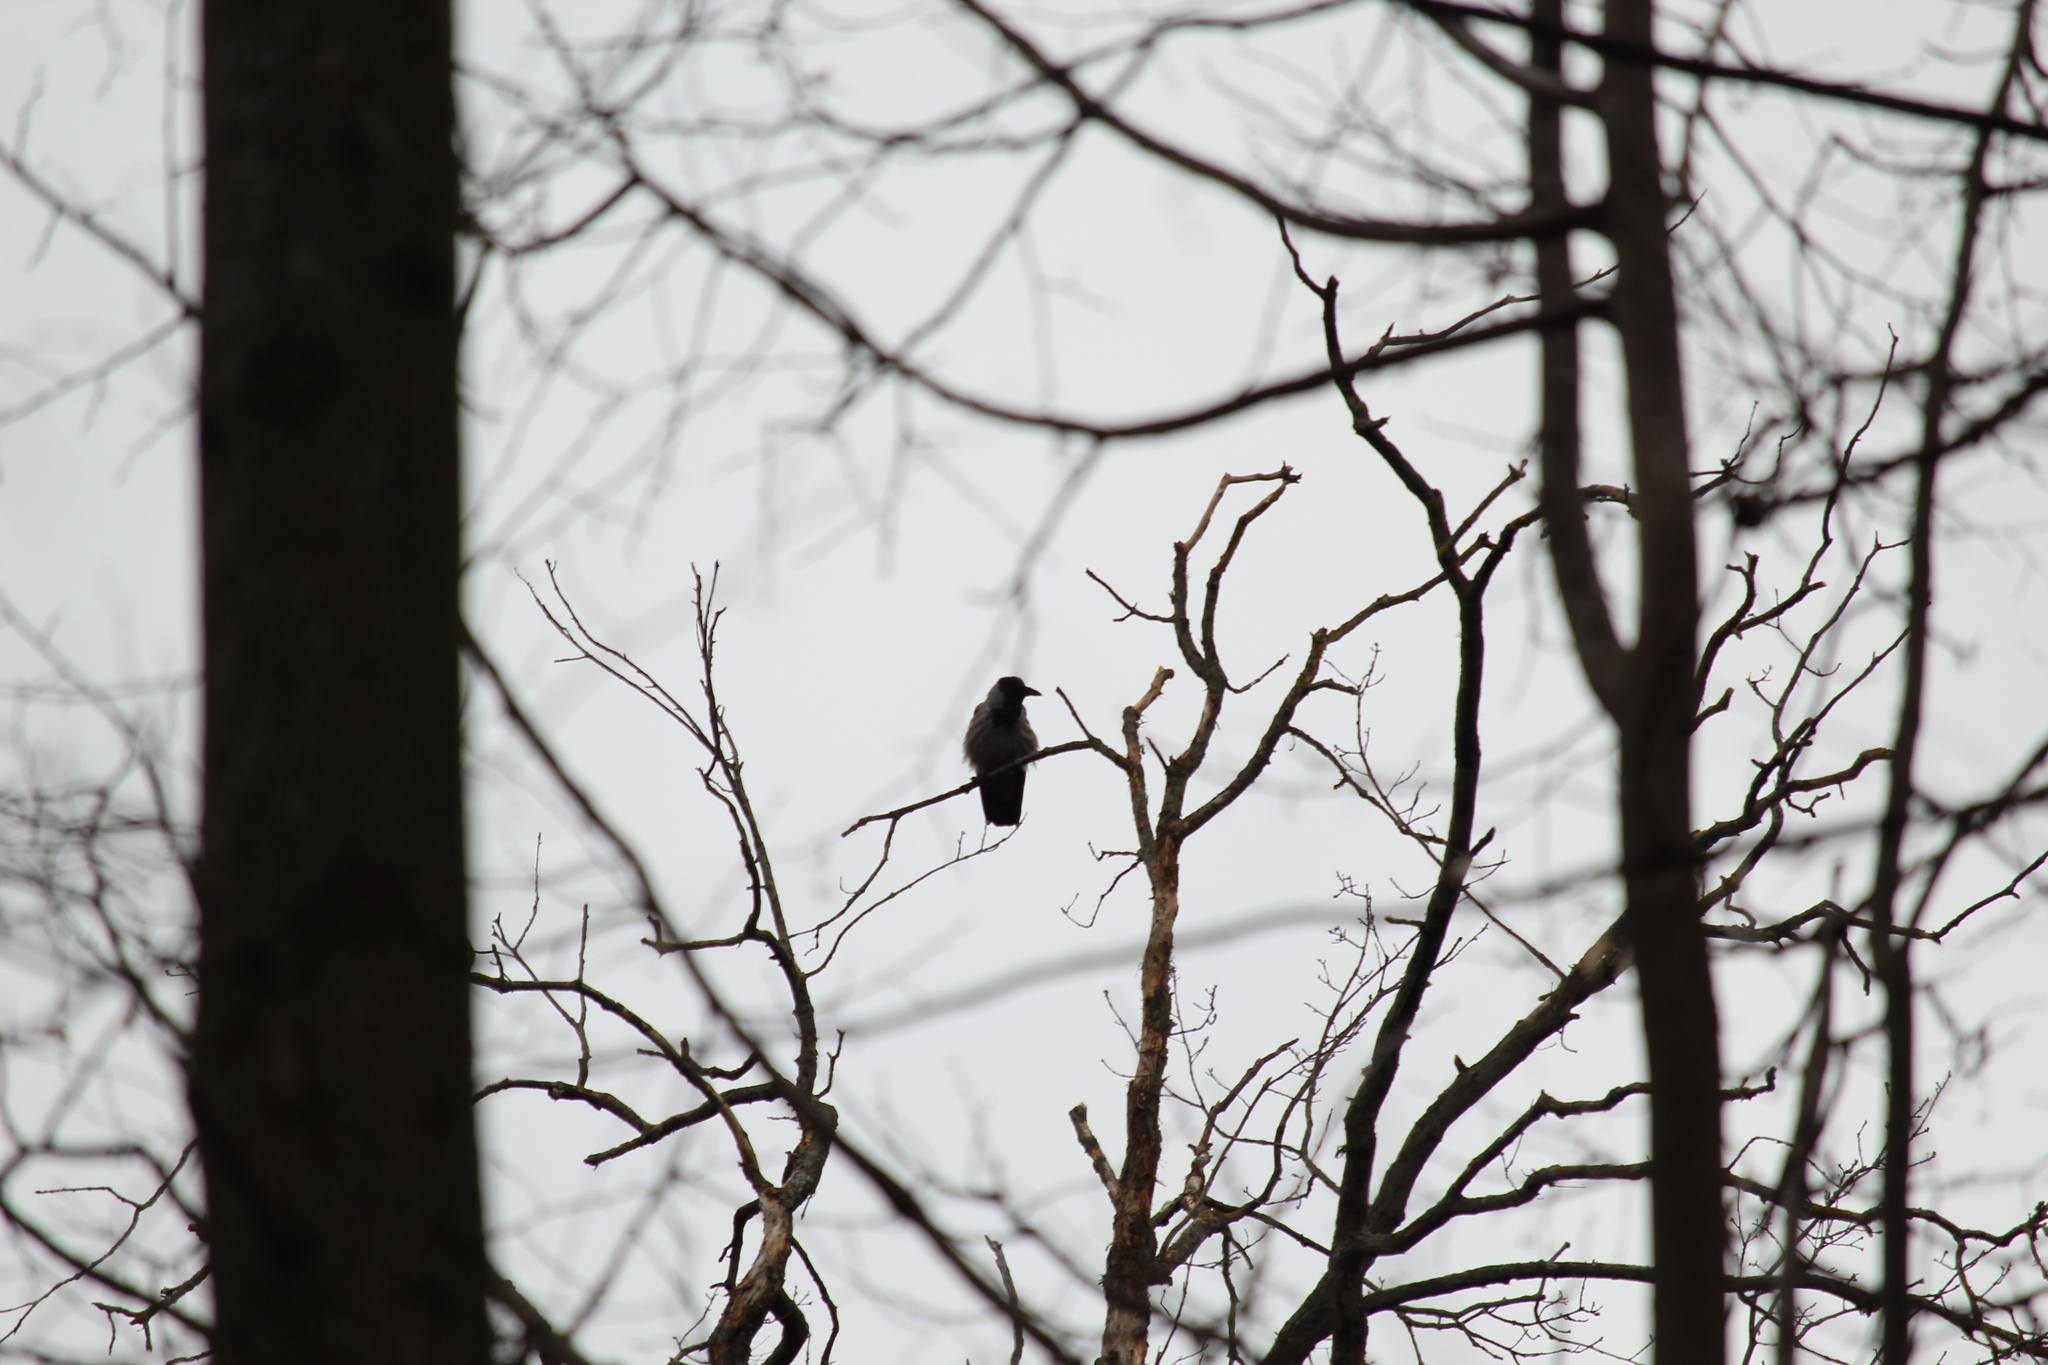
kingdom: Animalia
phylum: Chordata
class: Aves
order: Passeriformes
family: Corvidae
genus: Corvus
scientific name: Corvus cornix
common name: Hooded crow
